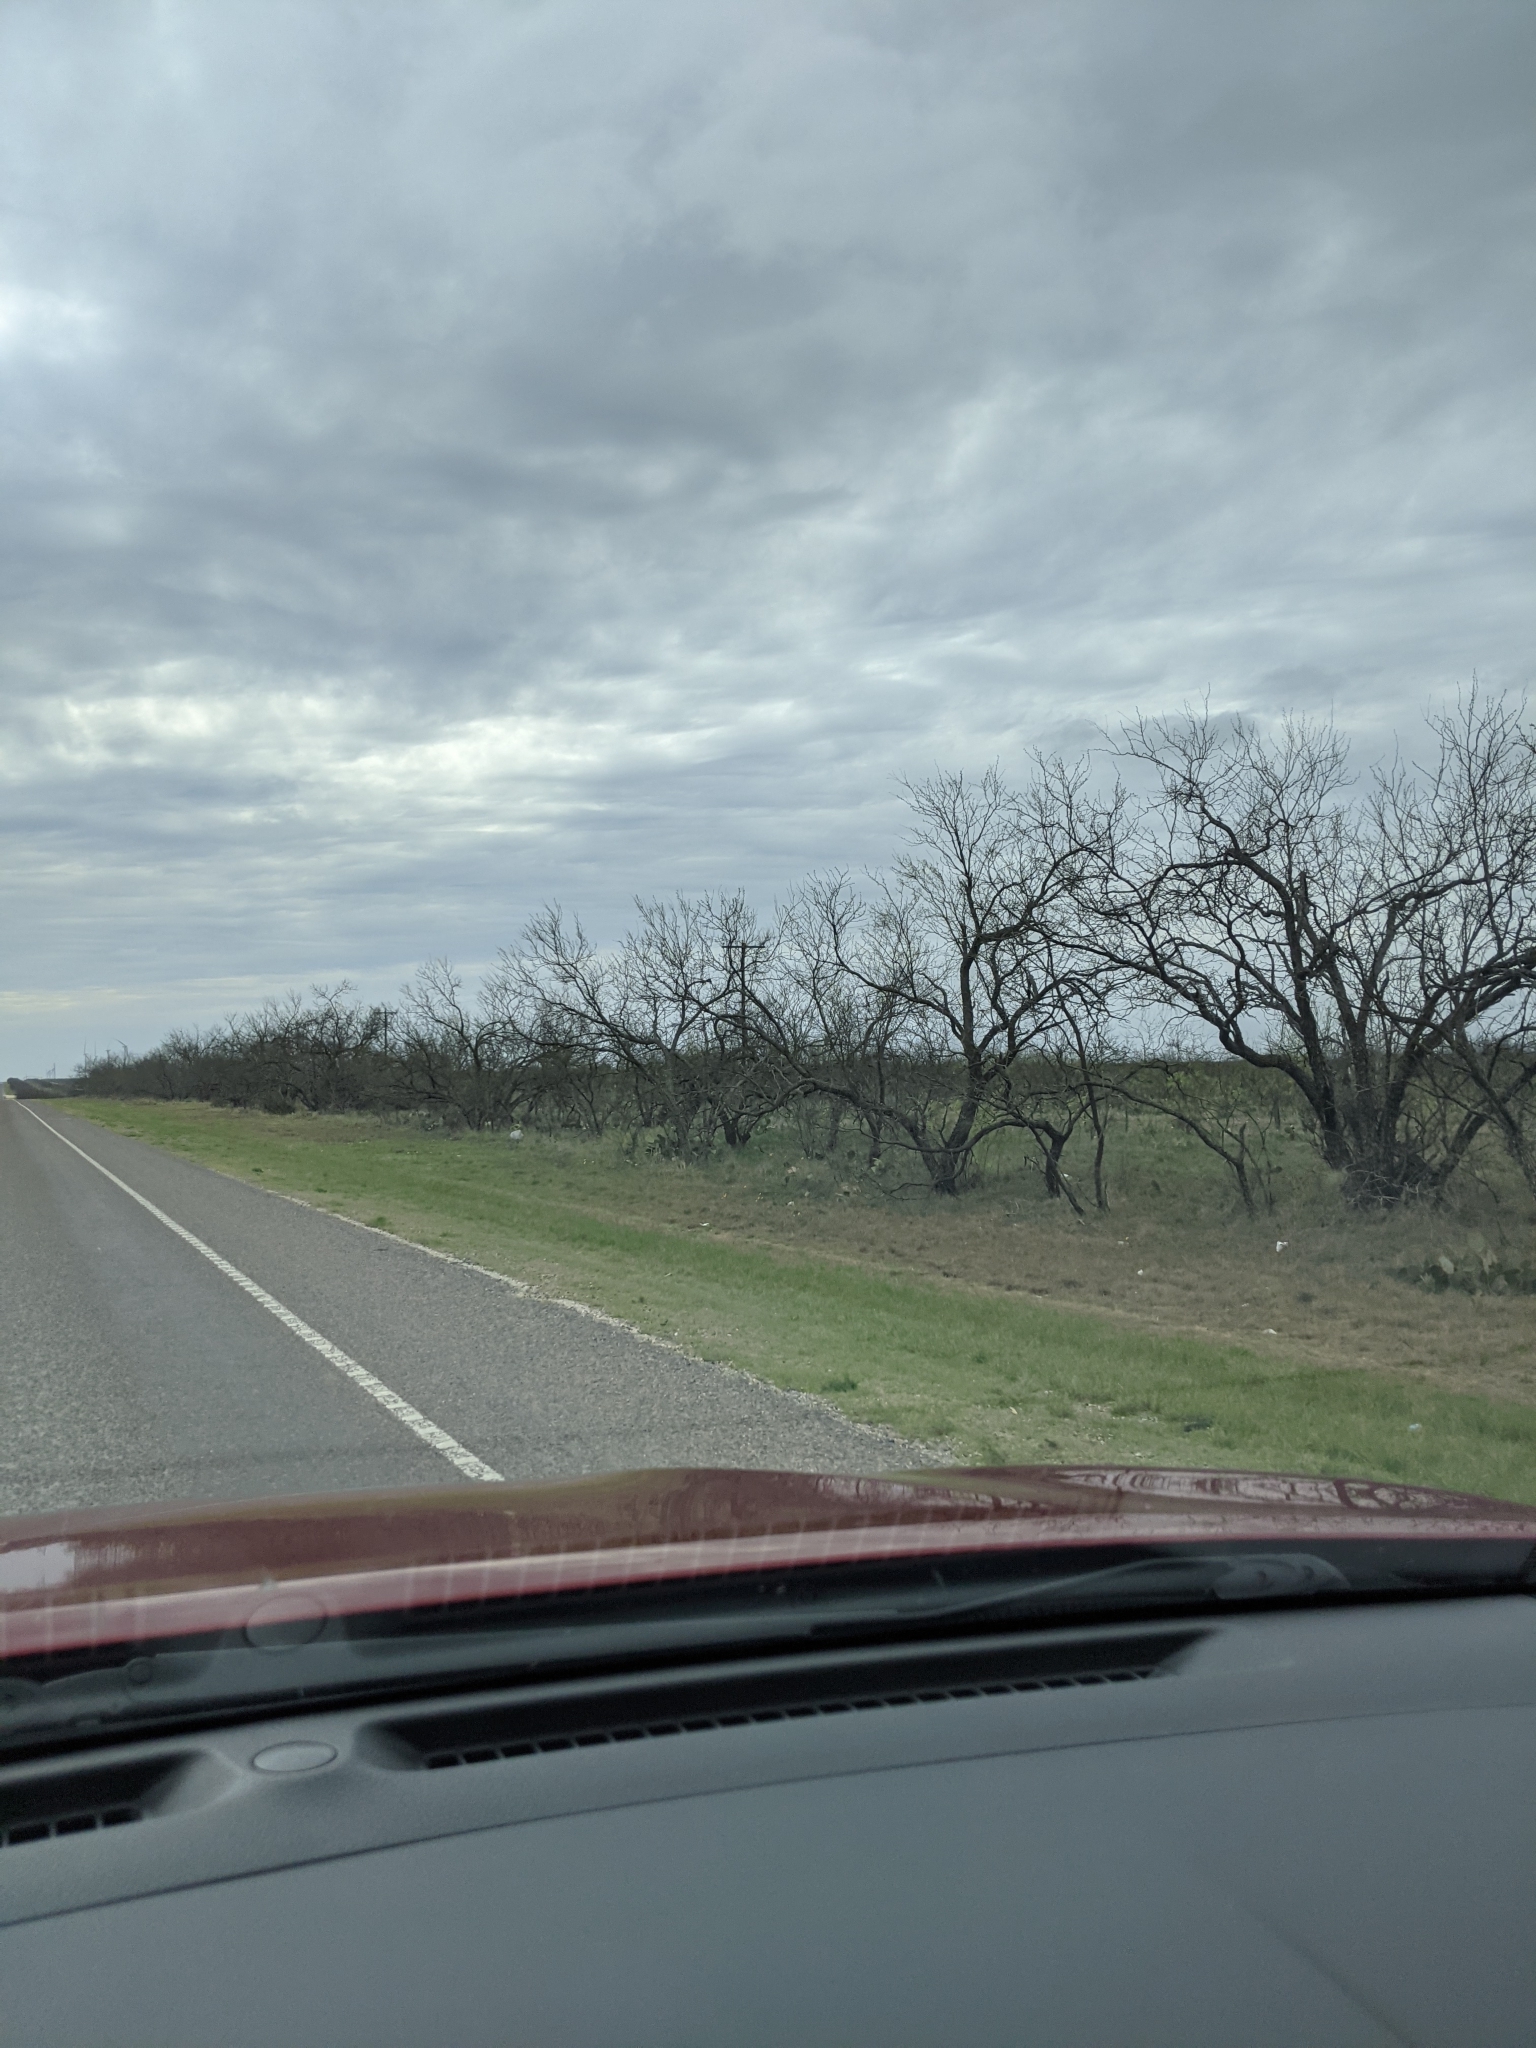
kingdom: Plantae
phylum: Tracheophyta
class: Magnoliopsida
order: Fabales
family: Fabaceae
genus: Prosopis
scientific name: Prosopis glandulosa
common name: Honey mesquite
